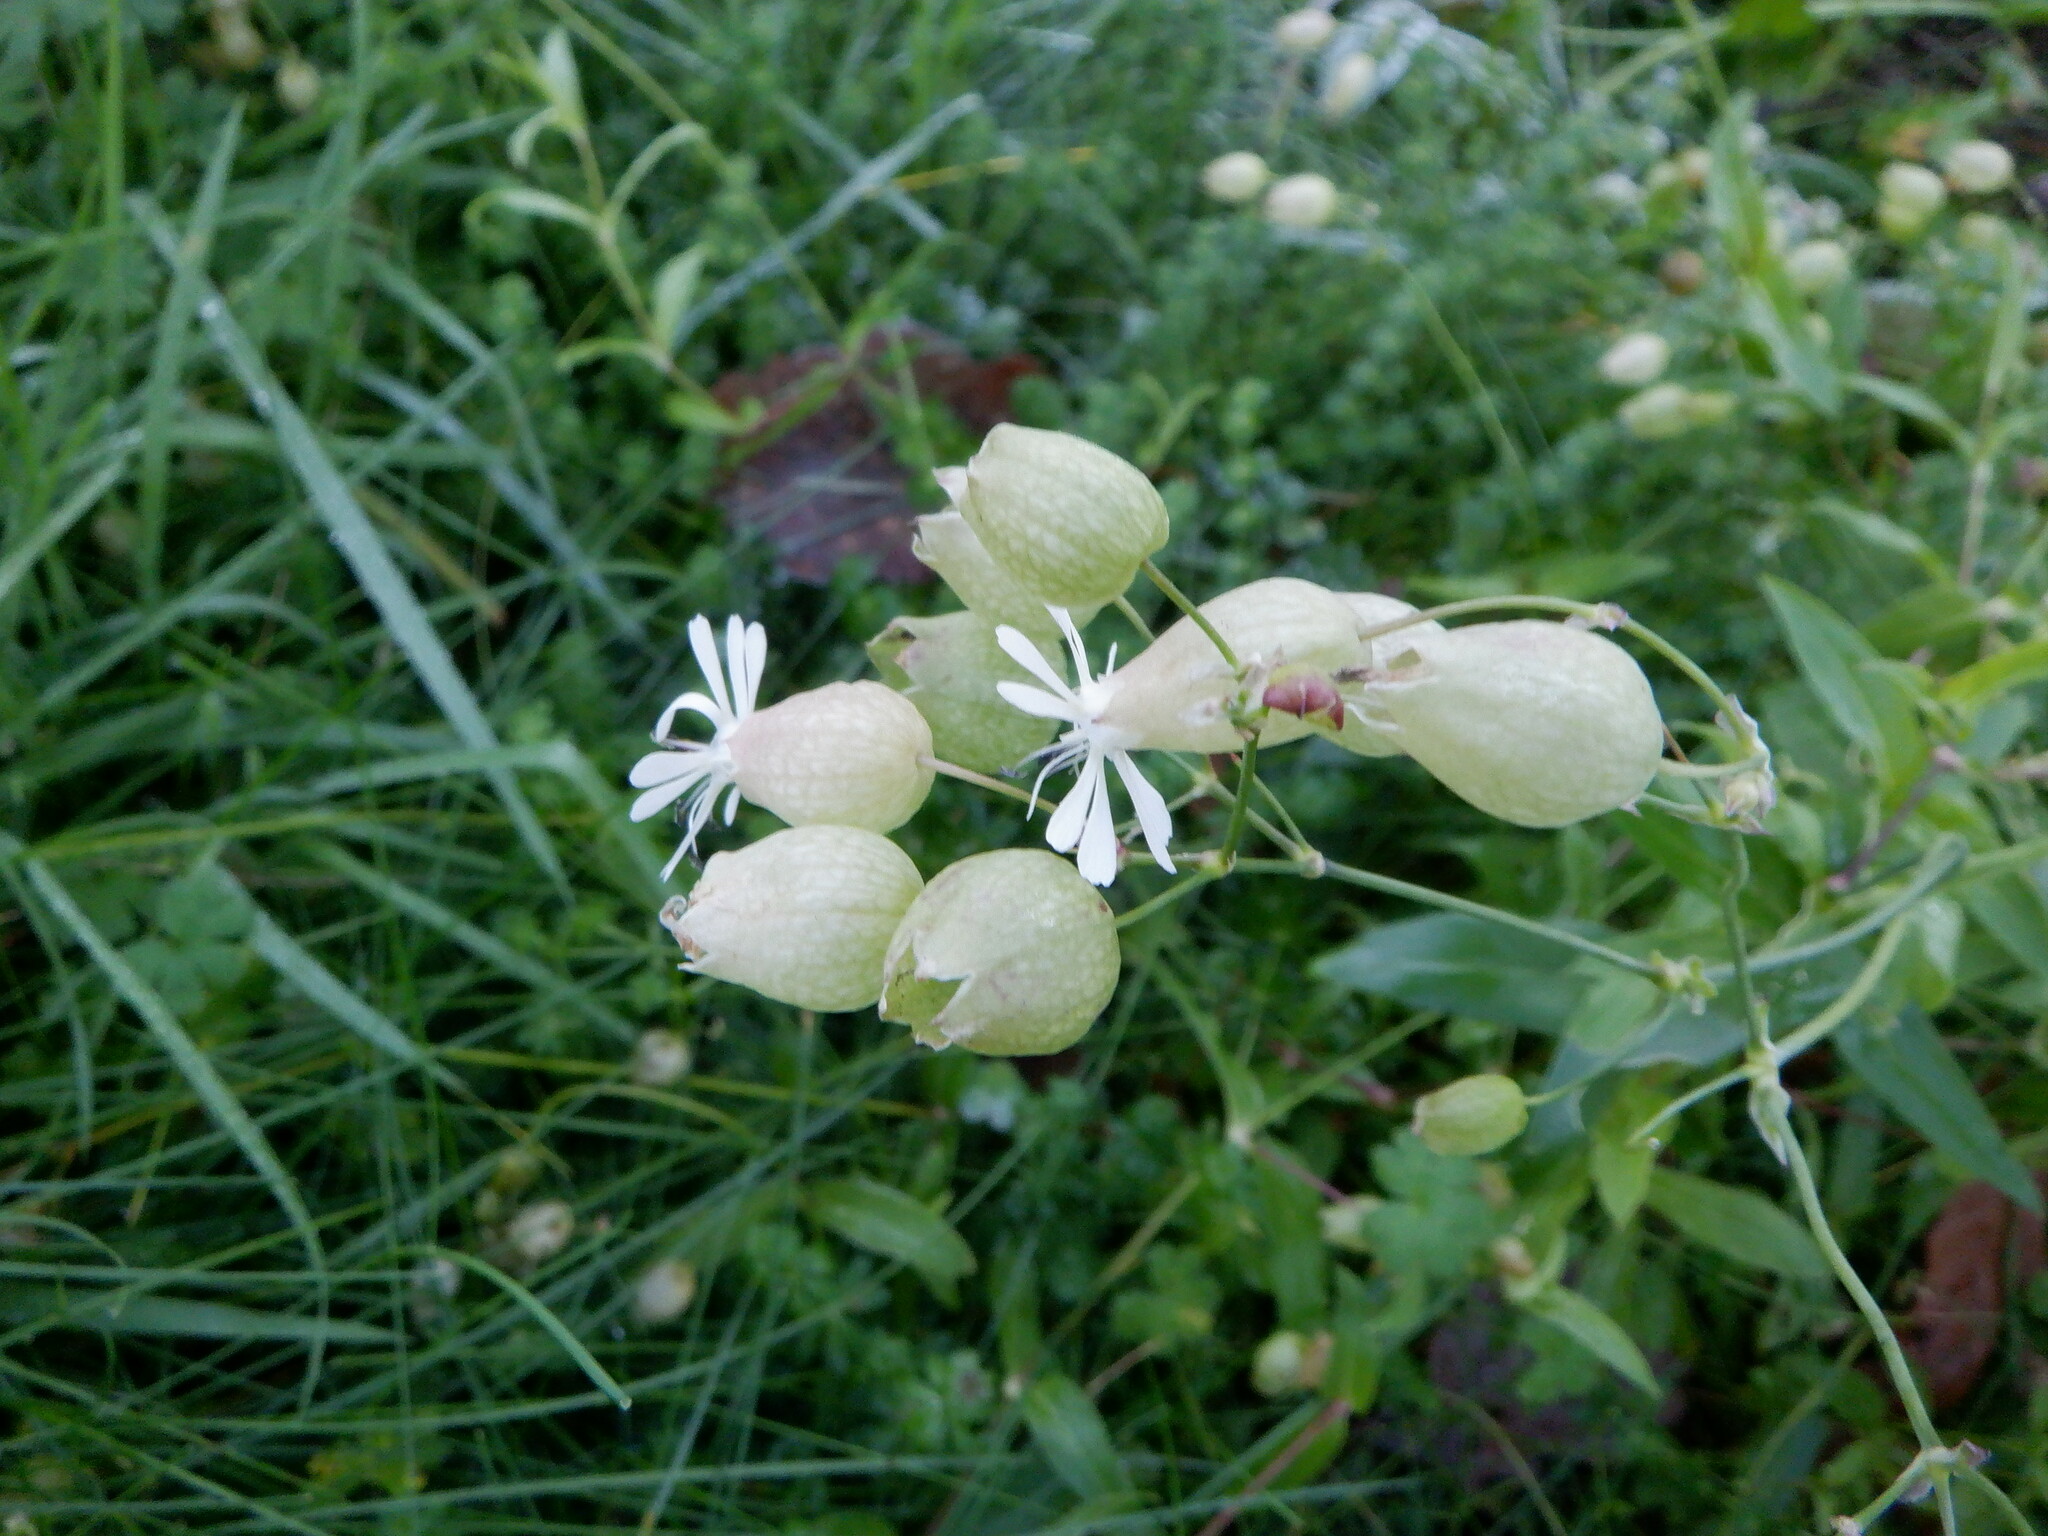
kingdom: Plantae
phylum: Tracheophyta
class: Magnoliopsida
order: Caryophyllales
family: Caryophyllaceae
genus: Silene
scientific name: Silene vulgaris
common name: Bladder campion
